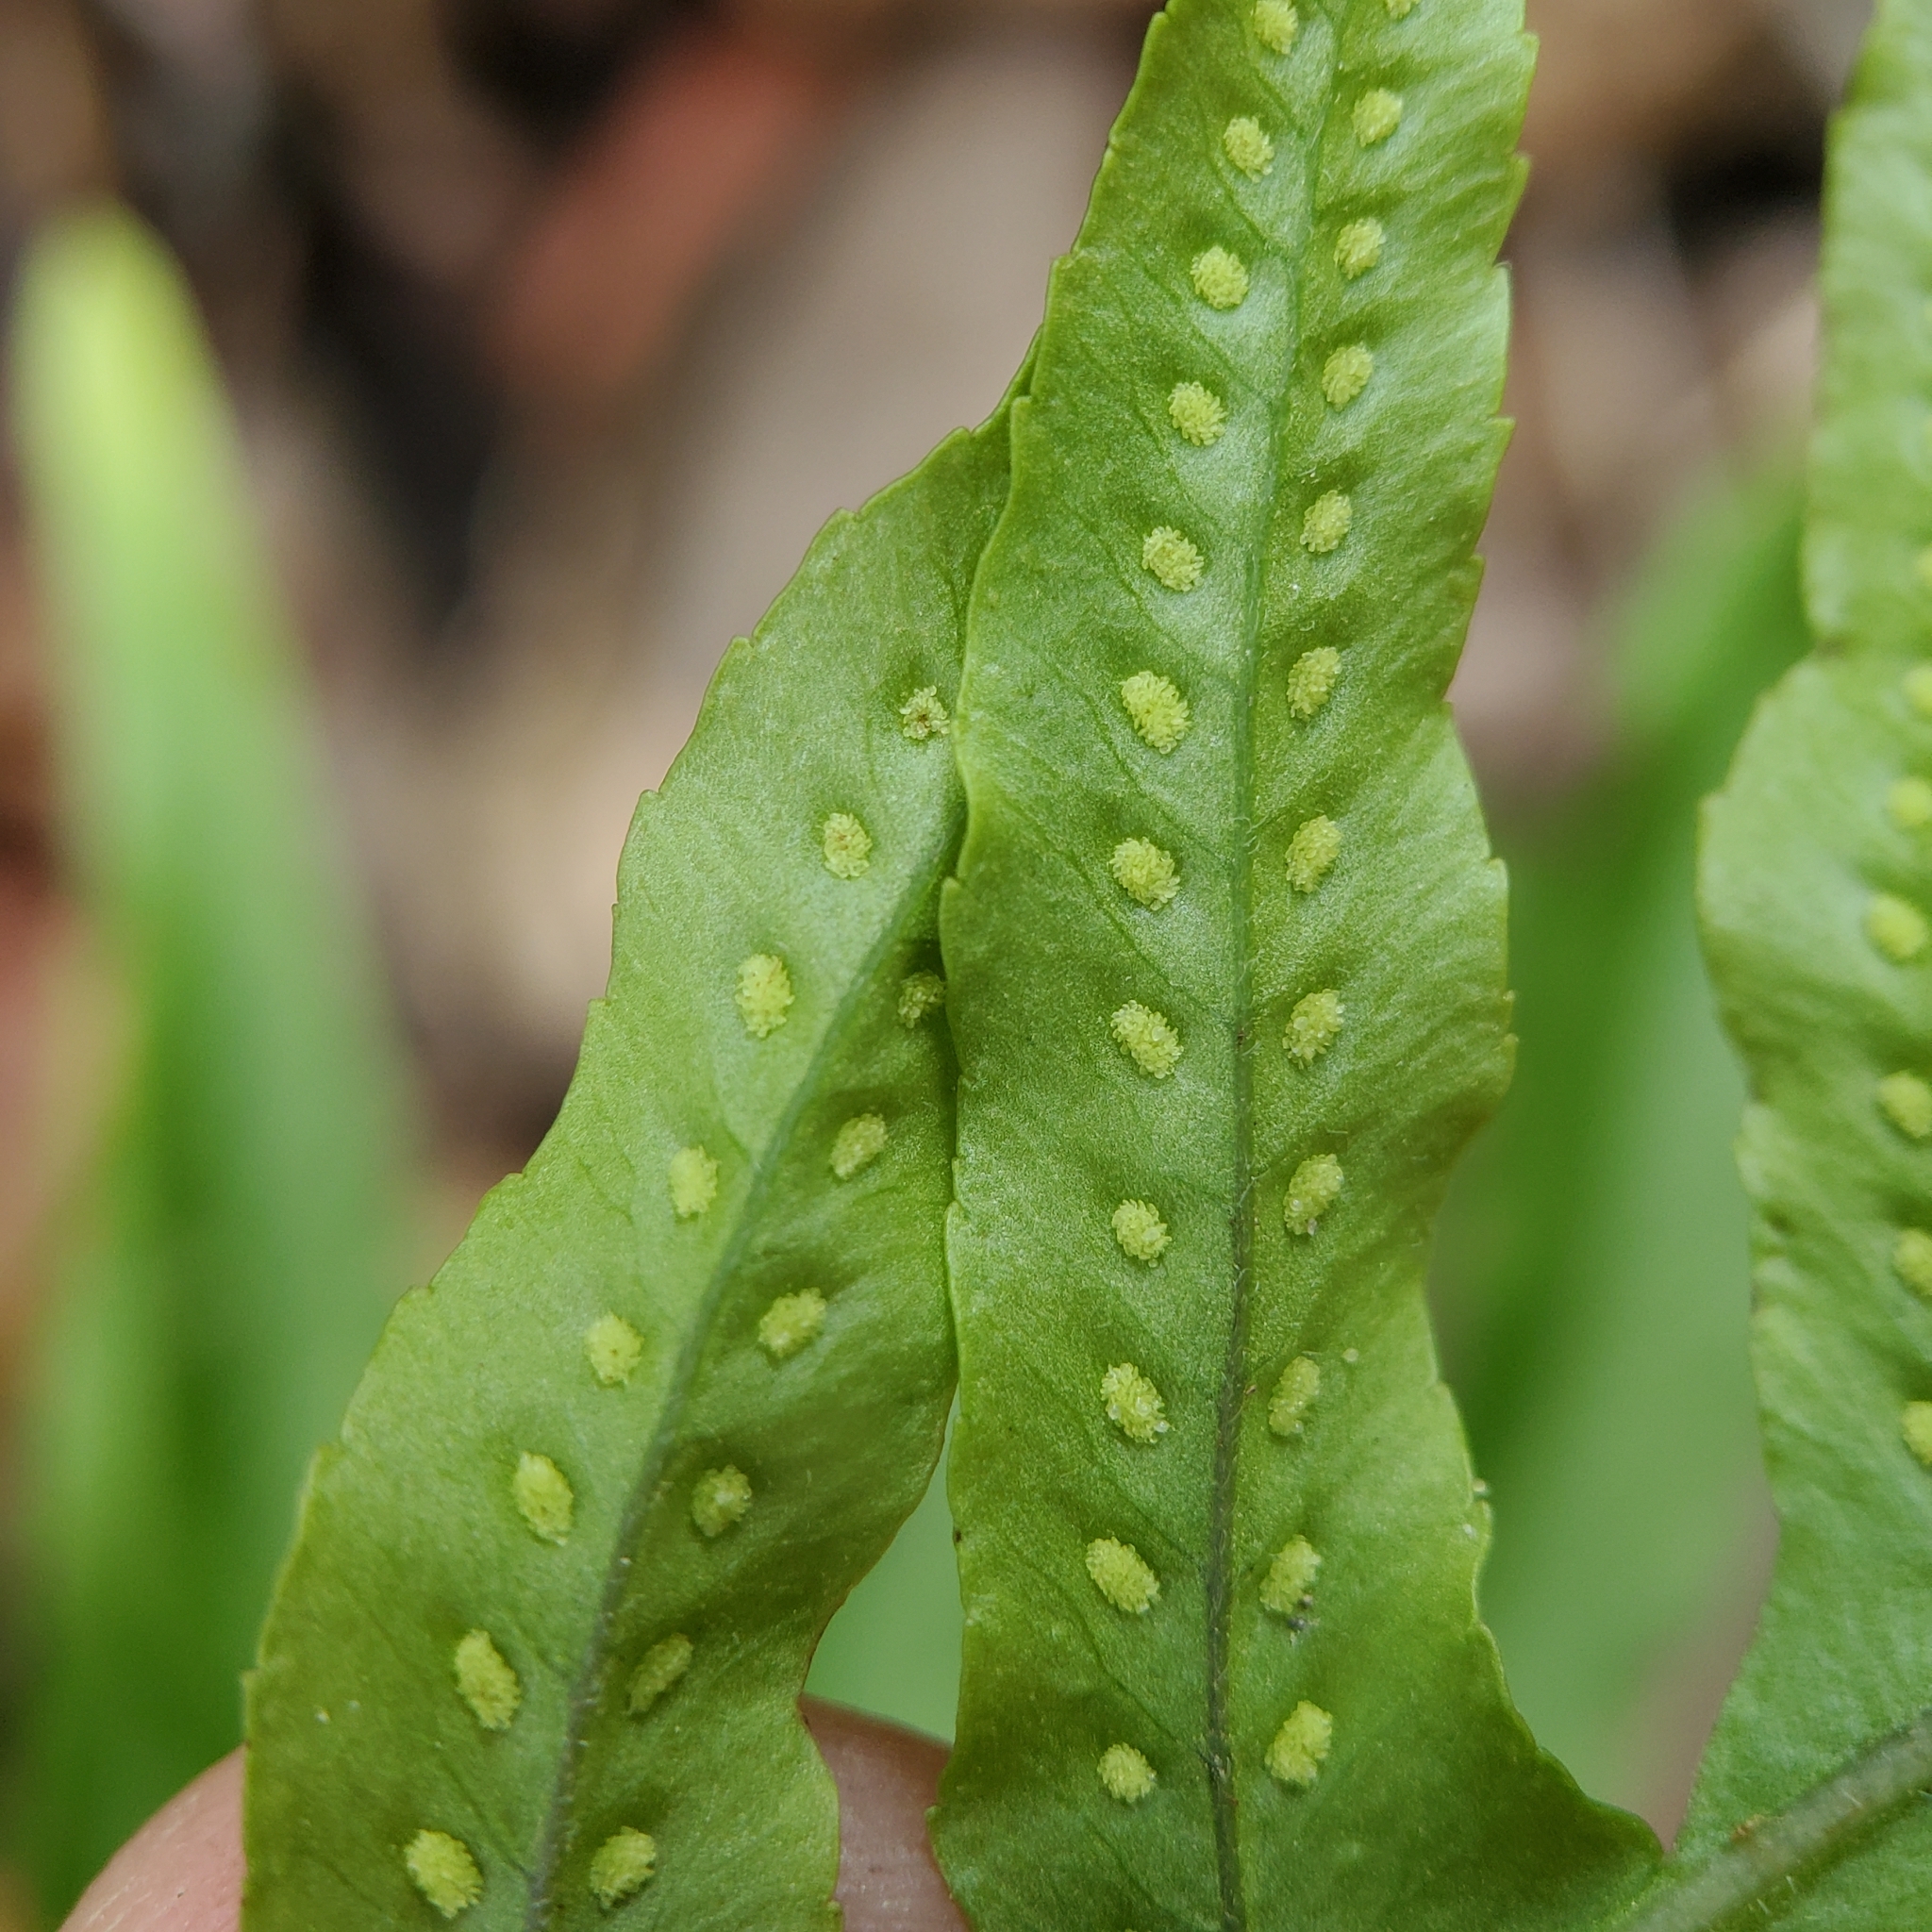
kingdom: Plantae
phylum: Tracheophyta
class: Polypodiopsida
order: Polypodiales
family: Polypodiaceae
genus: Polypodium
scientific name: Polypodium californicum
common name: California polypody
